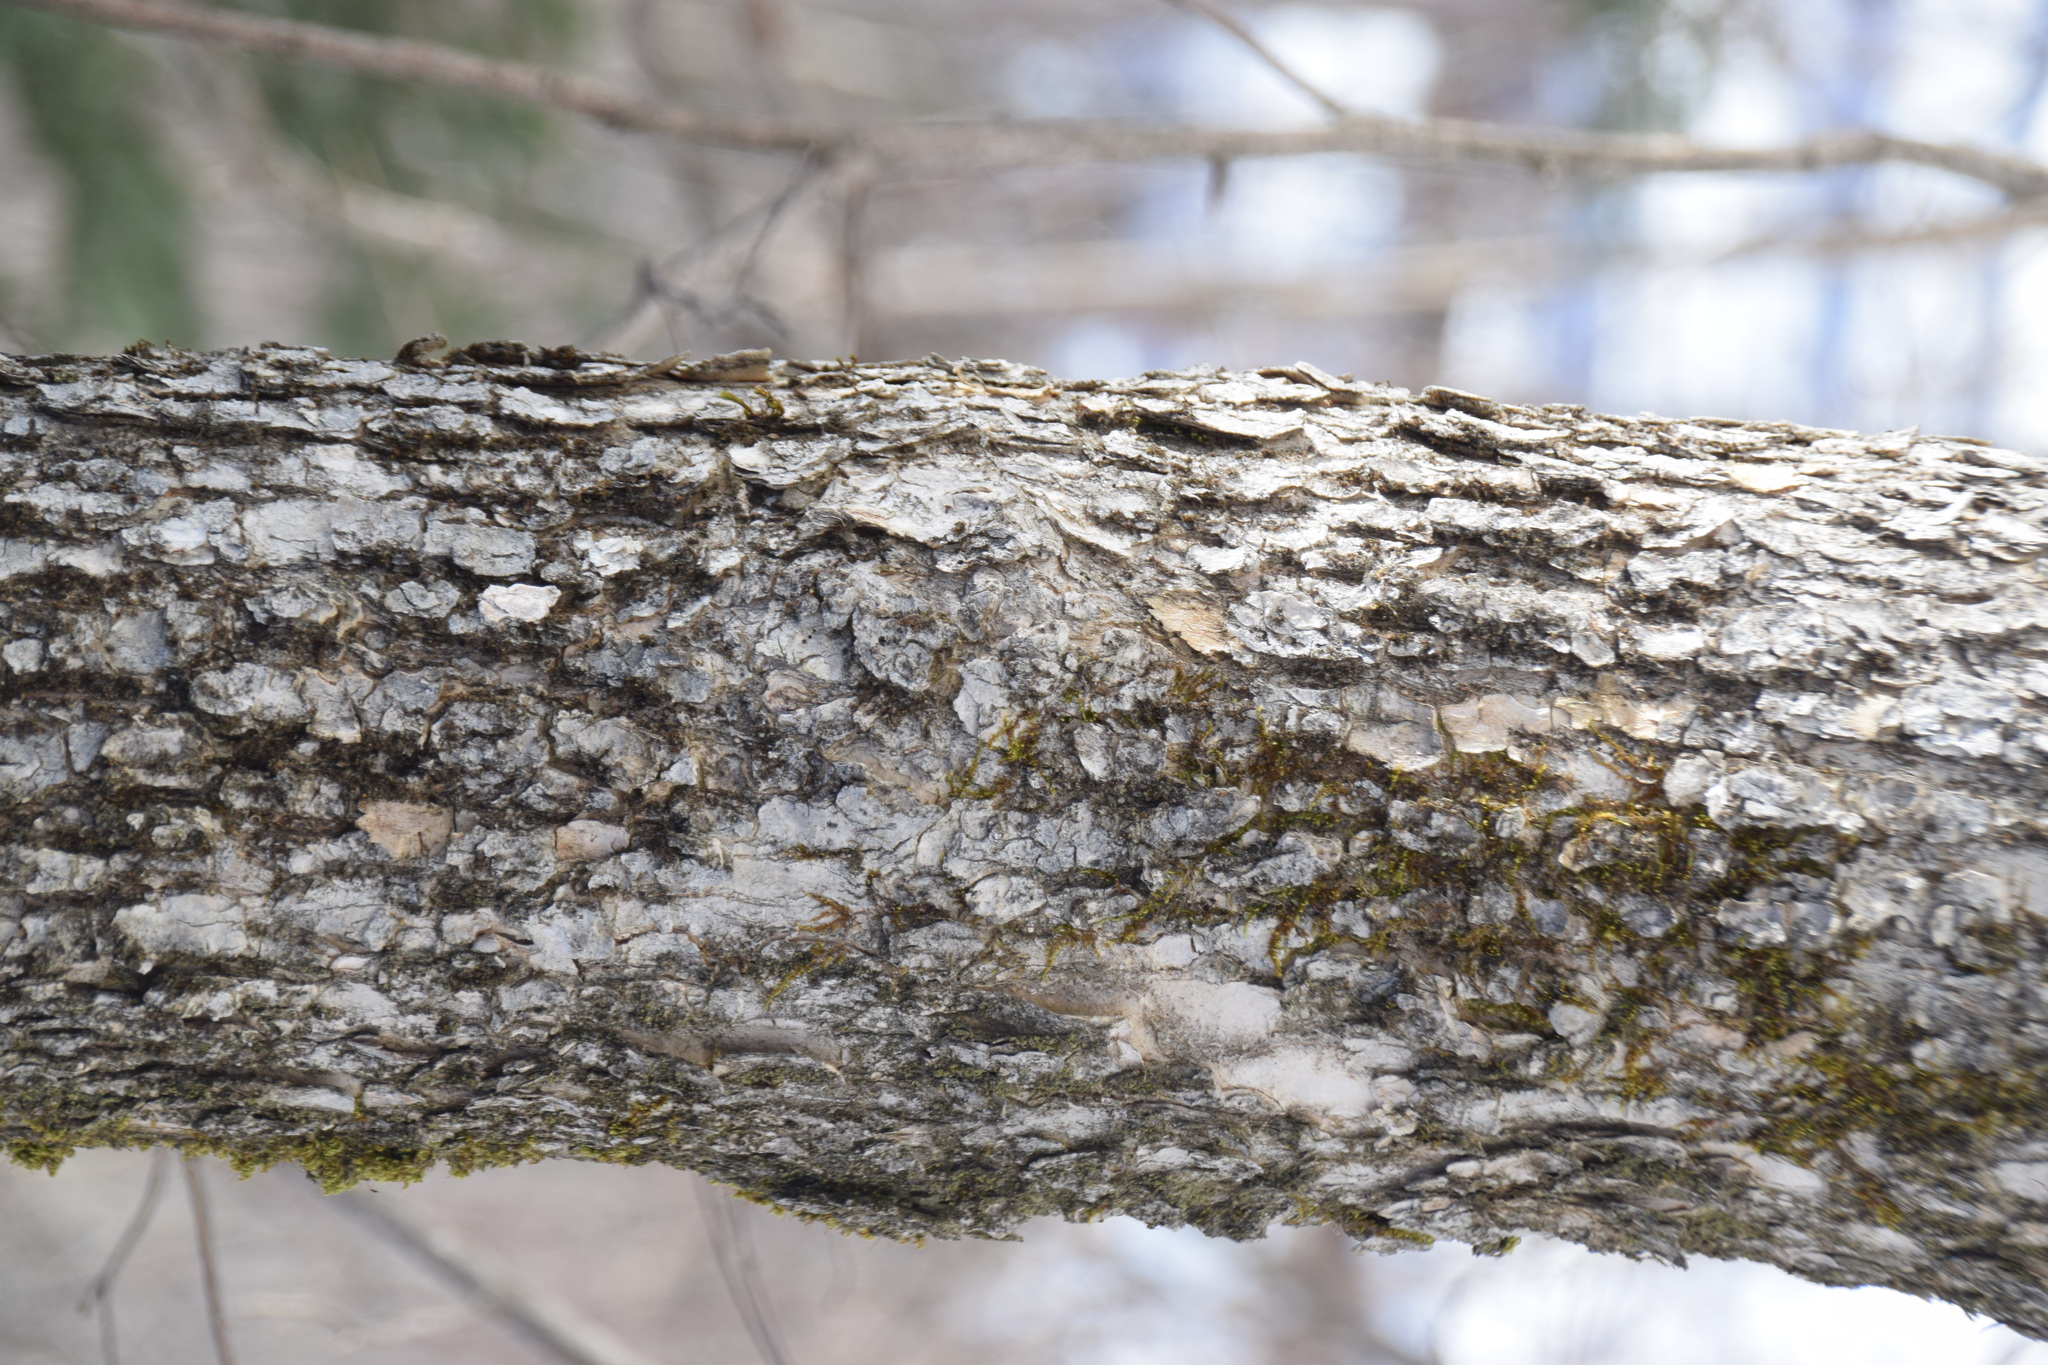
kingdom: Plantae
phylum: Tracheophyta
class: Magnoliopsida
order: Lamiales
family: Oleaceae
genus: Fraxinus
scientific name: Fraxinus nigra
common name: Black ash
